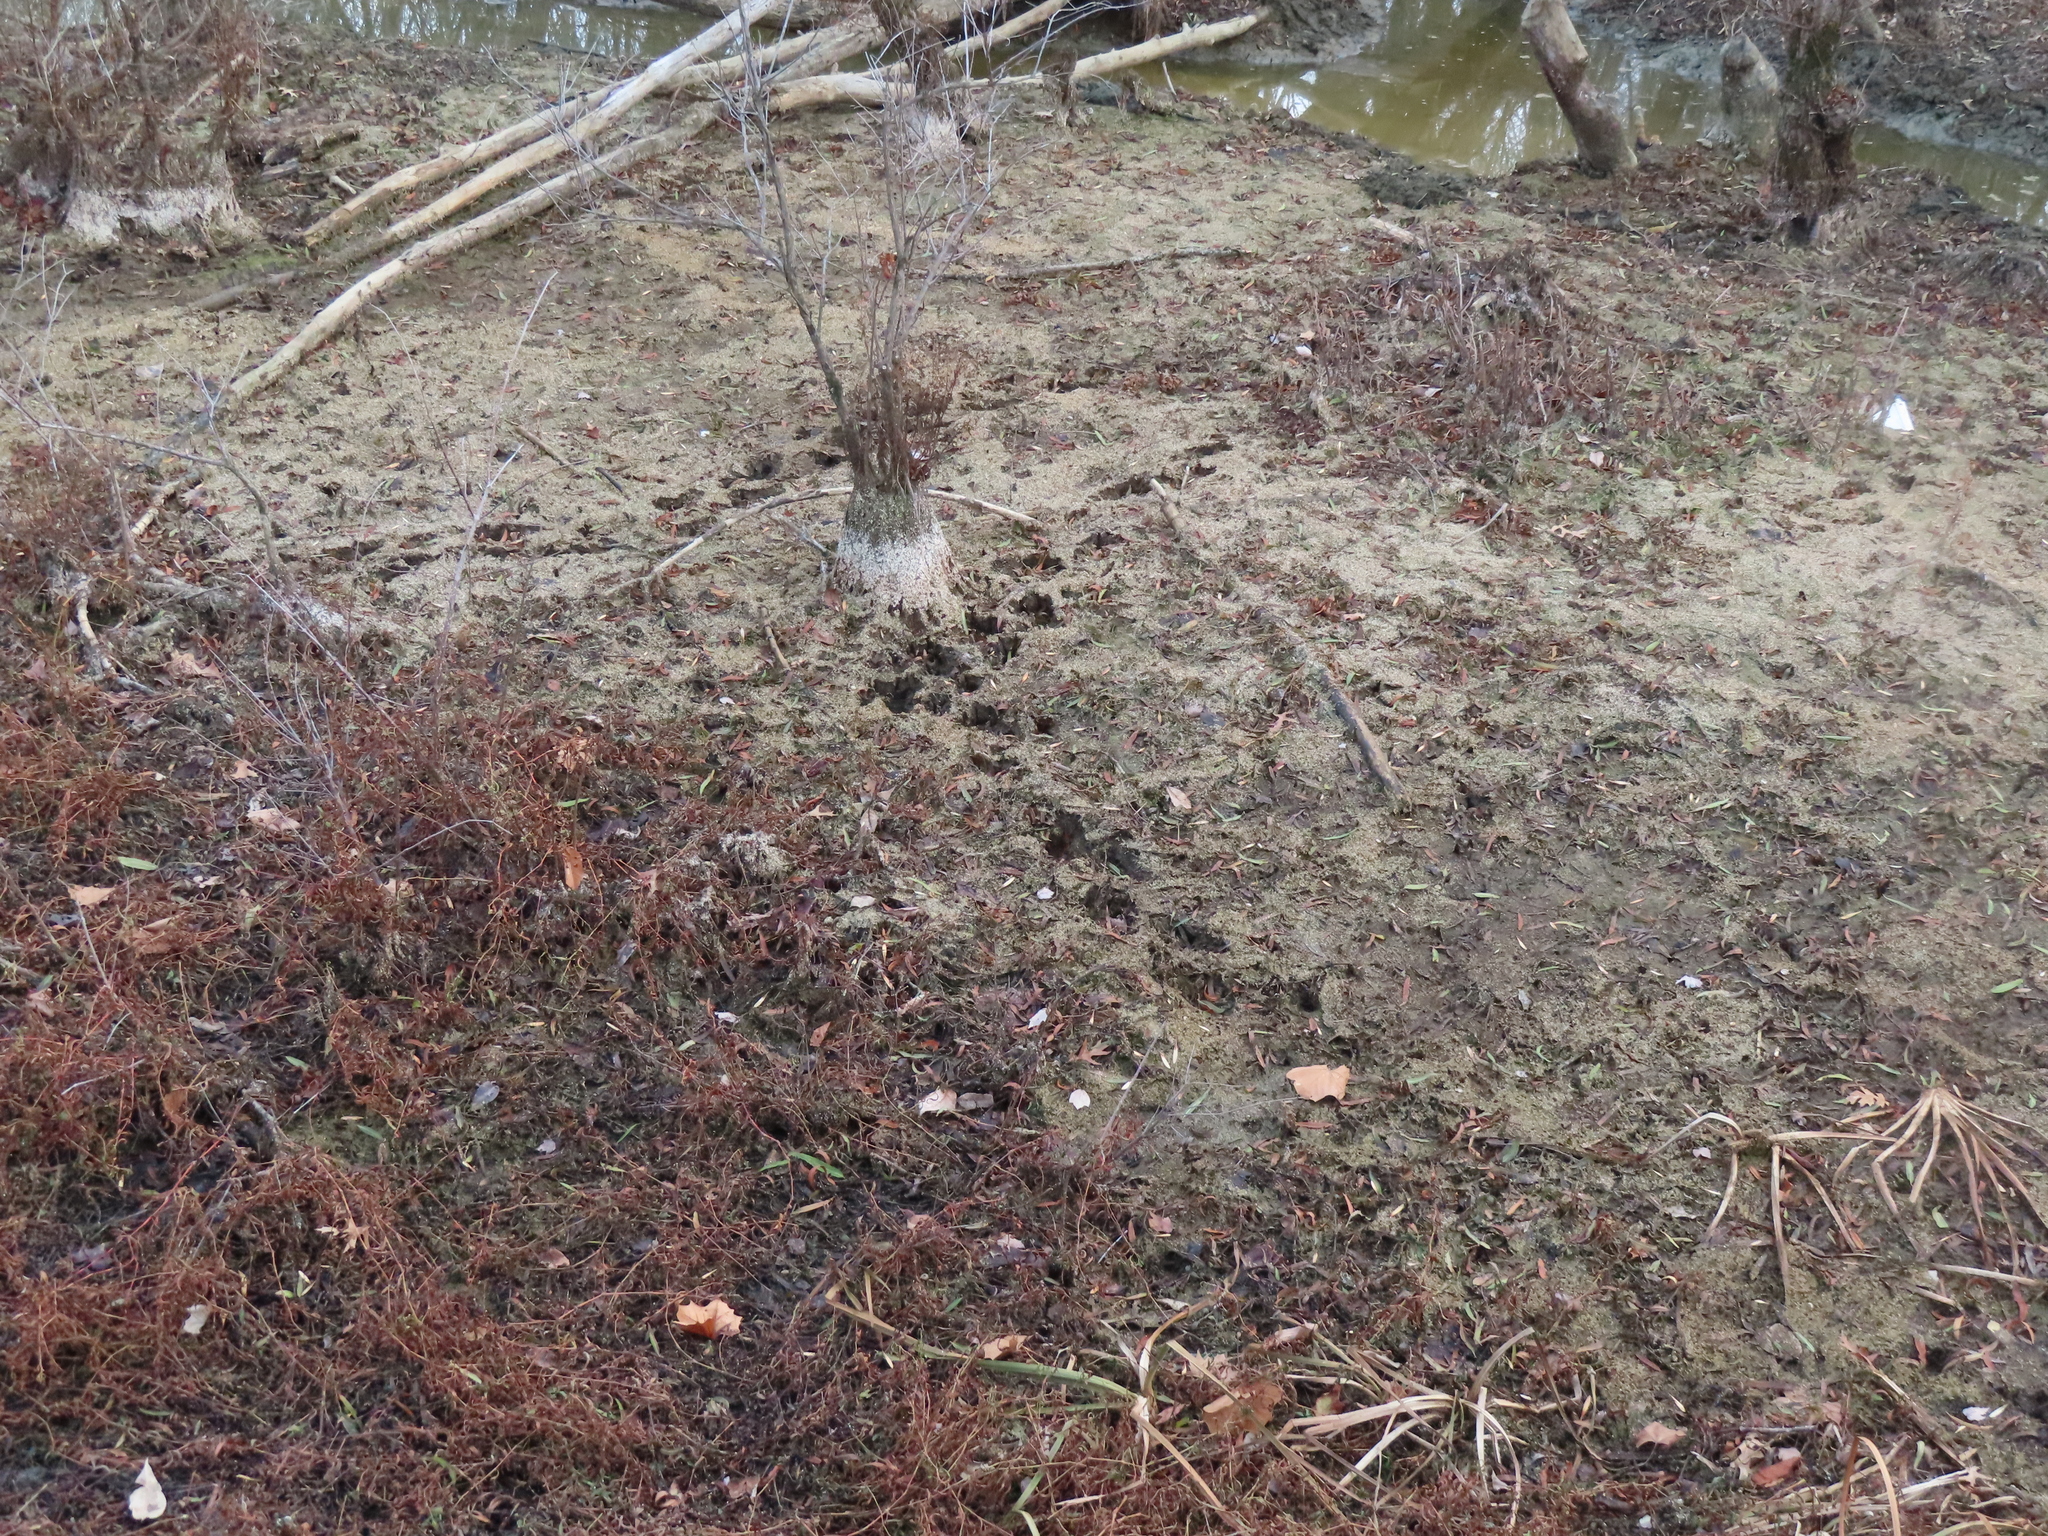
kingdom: Animalia
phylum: Chordata
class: Mammalia
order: Carnivora
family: Procyonidae
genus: Procyon
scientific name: Procyon lotor
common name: Raccoon
